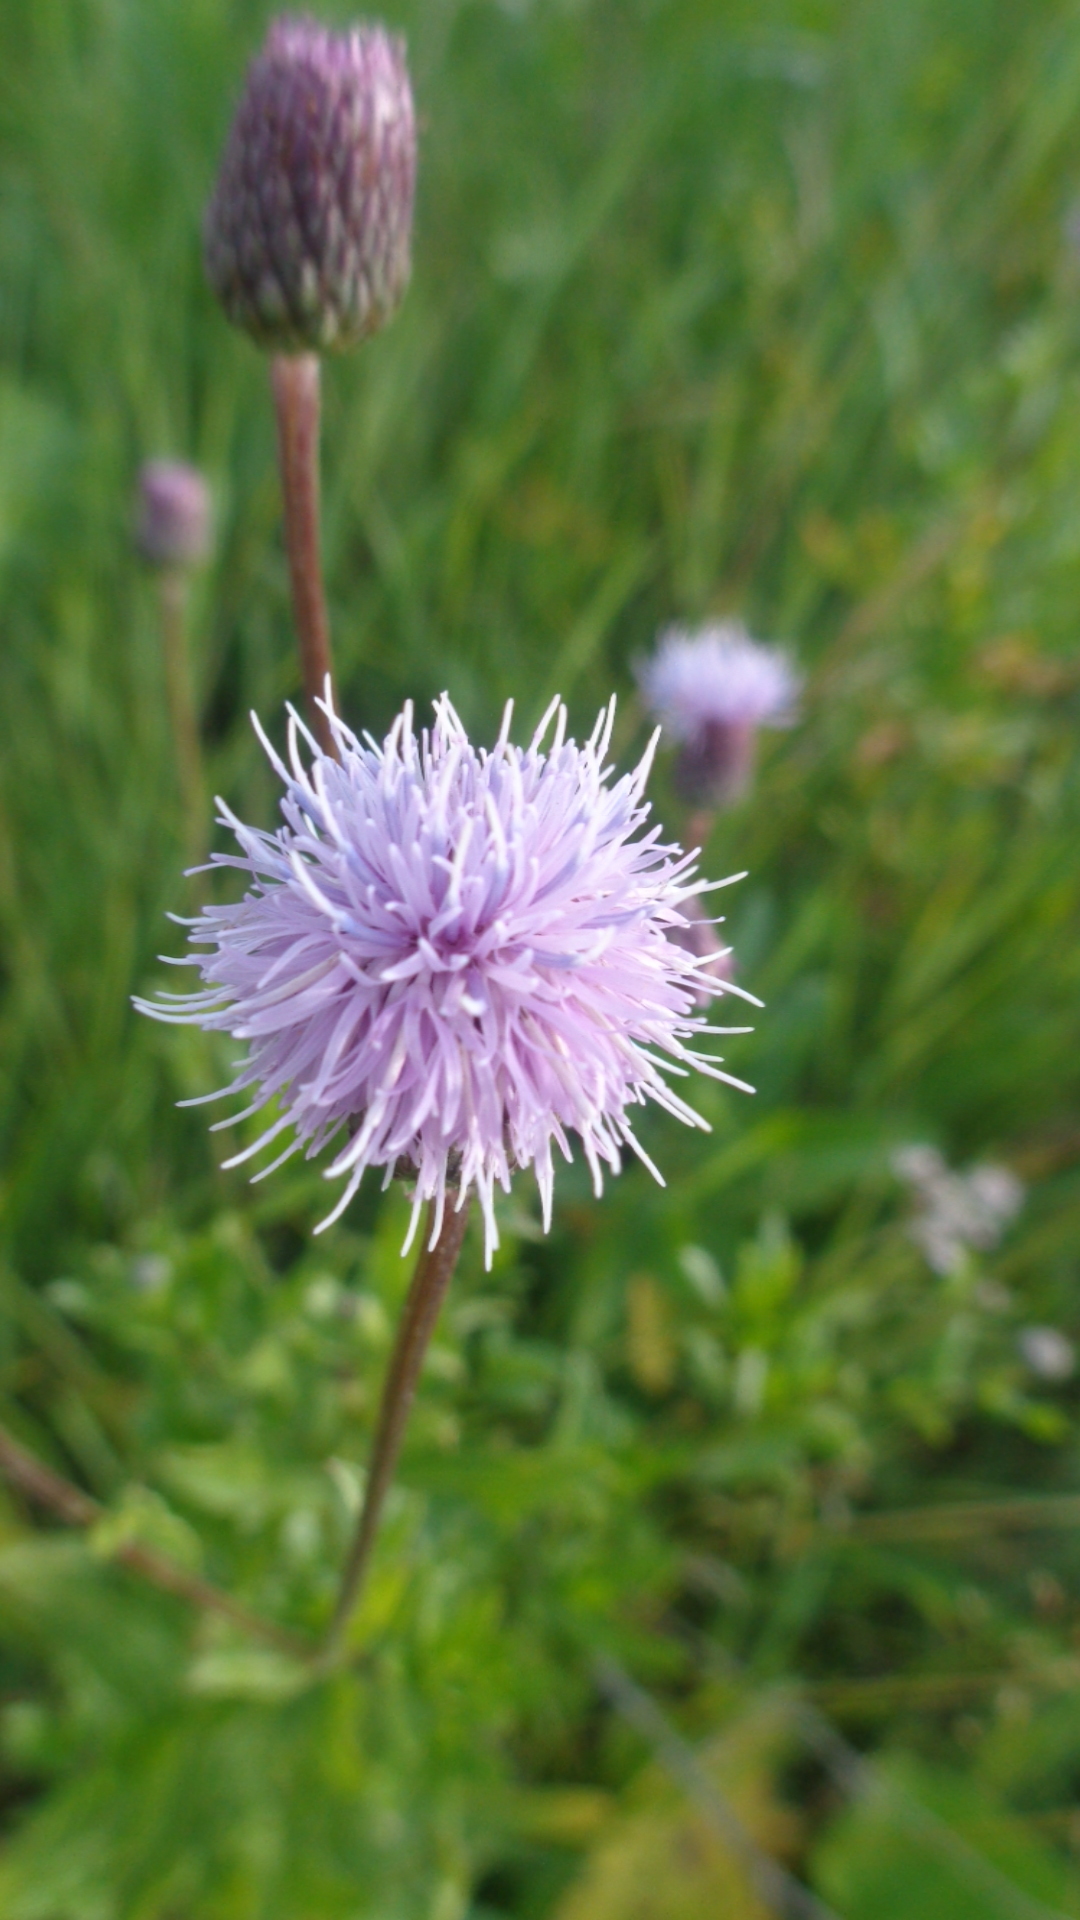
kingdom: Plantae
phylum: Tracheophyta
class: Magnoliopsida
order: Asterales
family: Asteraceae
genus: Cirsium
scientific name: Cirsium arvense
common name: Creeping thistle
